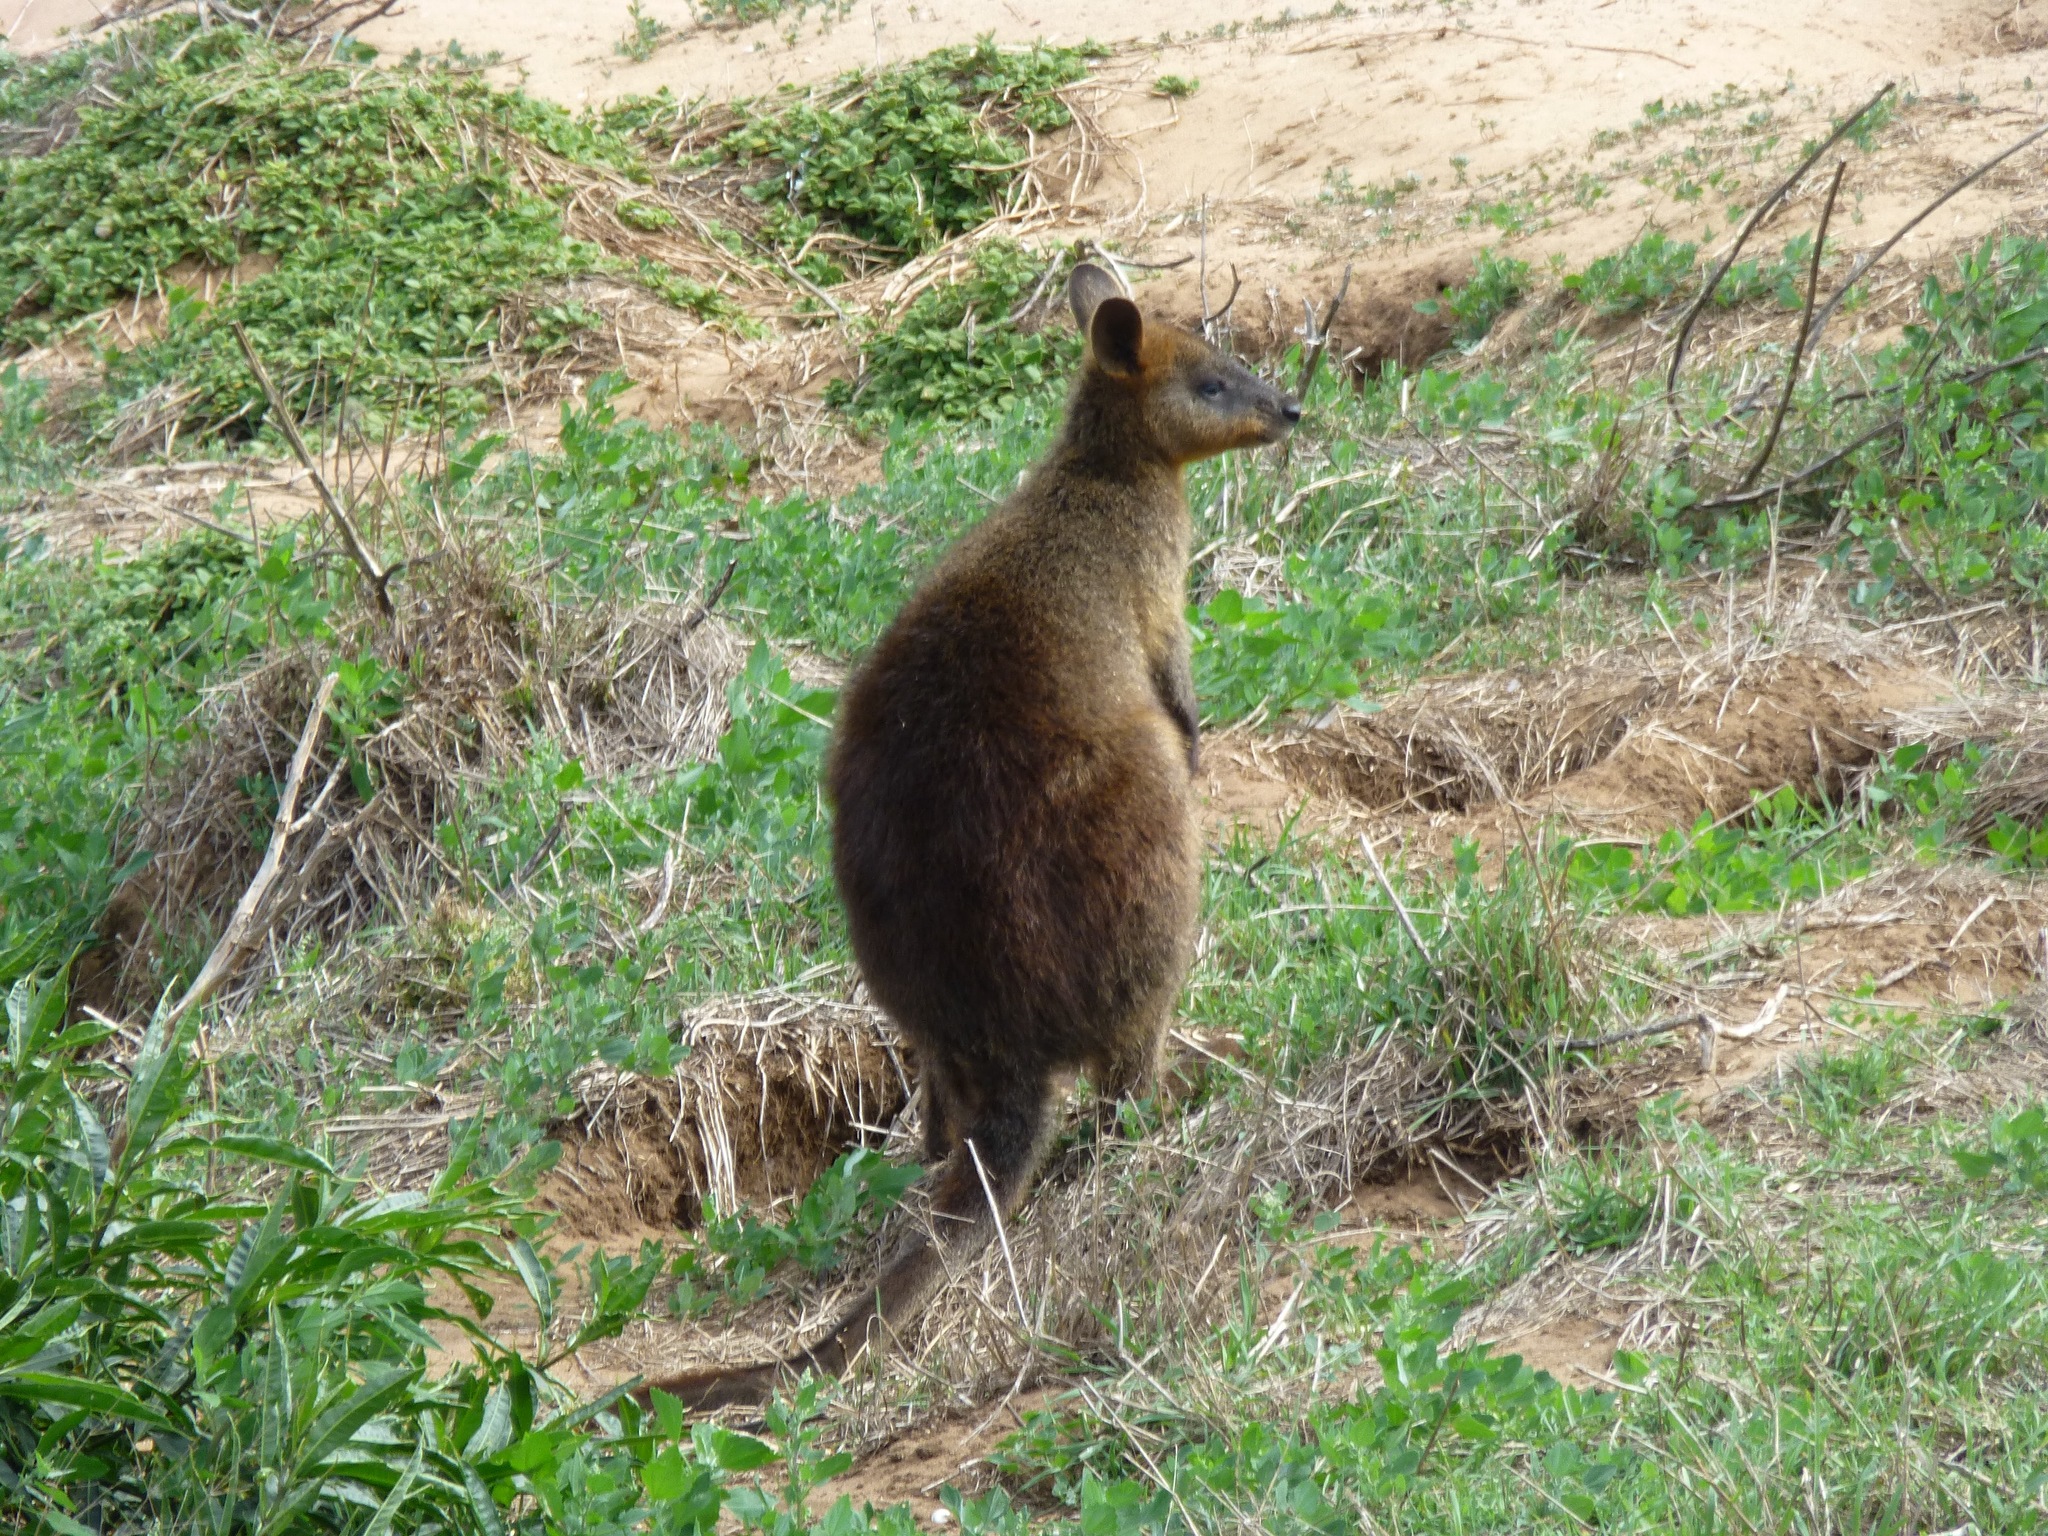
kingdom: Animalia
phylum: Chordata
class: Mammalia
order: Diprotodontia
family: Macropodidae
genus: Wallabia
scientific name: Wallabia bicolor
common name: Swamp wallaby
